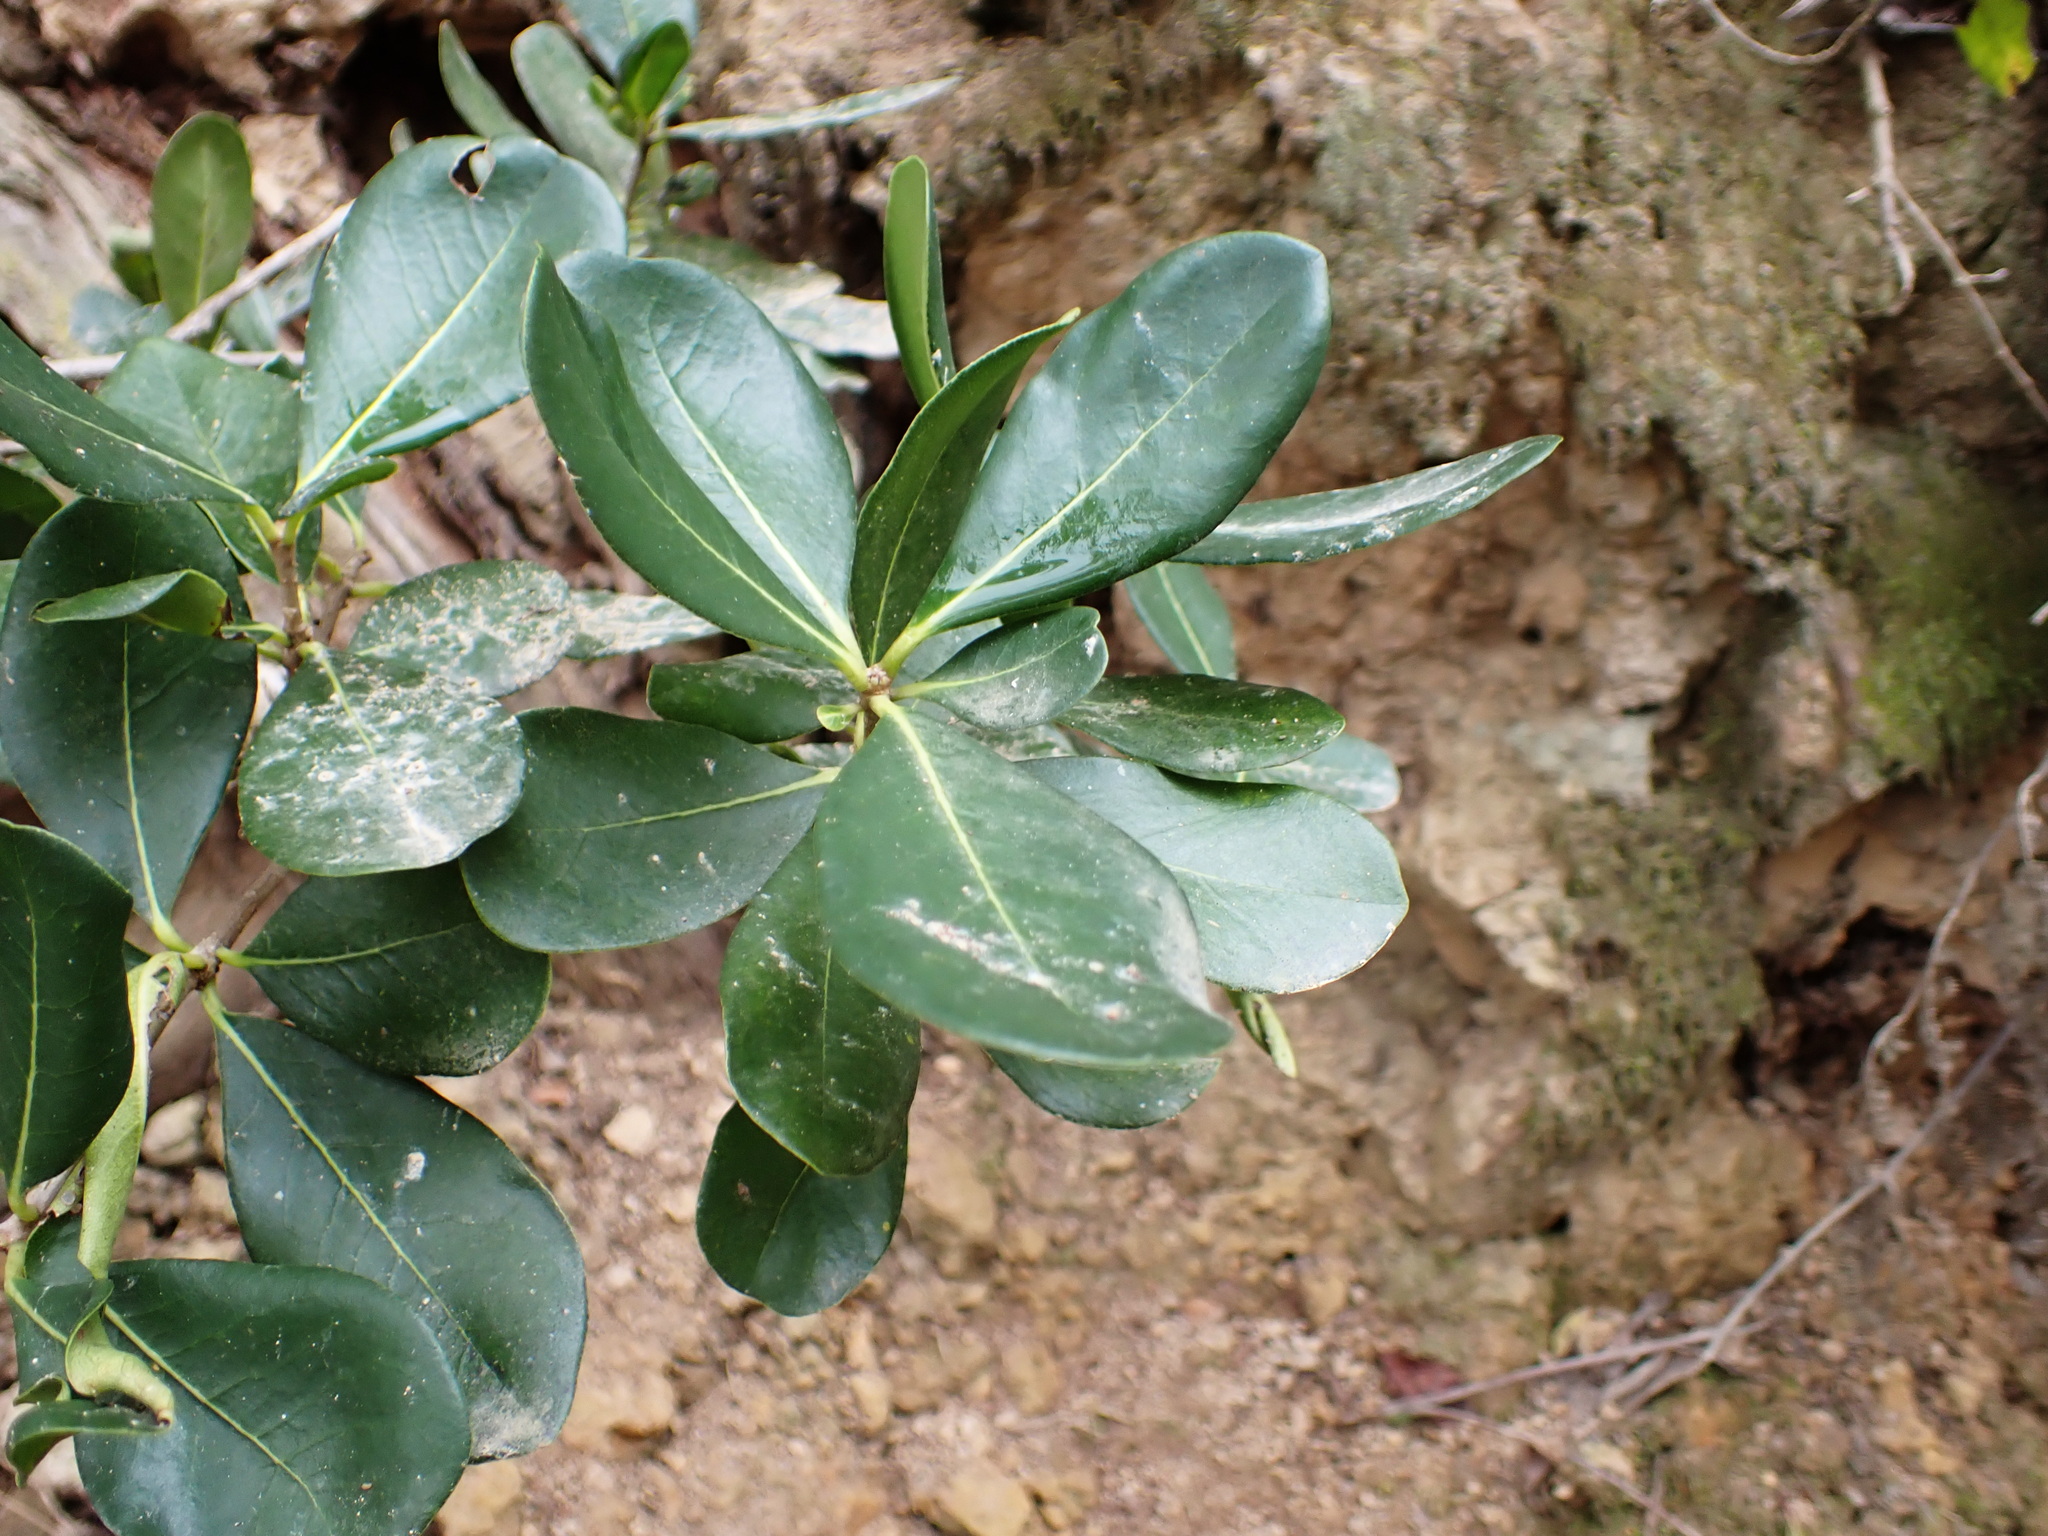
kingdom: Plantae
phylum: Tracheophyta
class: Magnoliopsida
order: Apiales
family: Pittosporaceae
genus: Pittosporum
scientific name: Pittosporum viridiflorum
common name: Cape cheesewood
